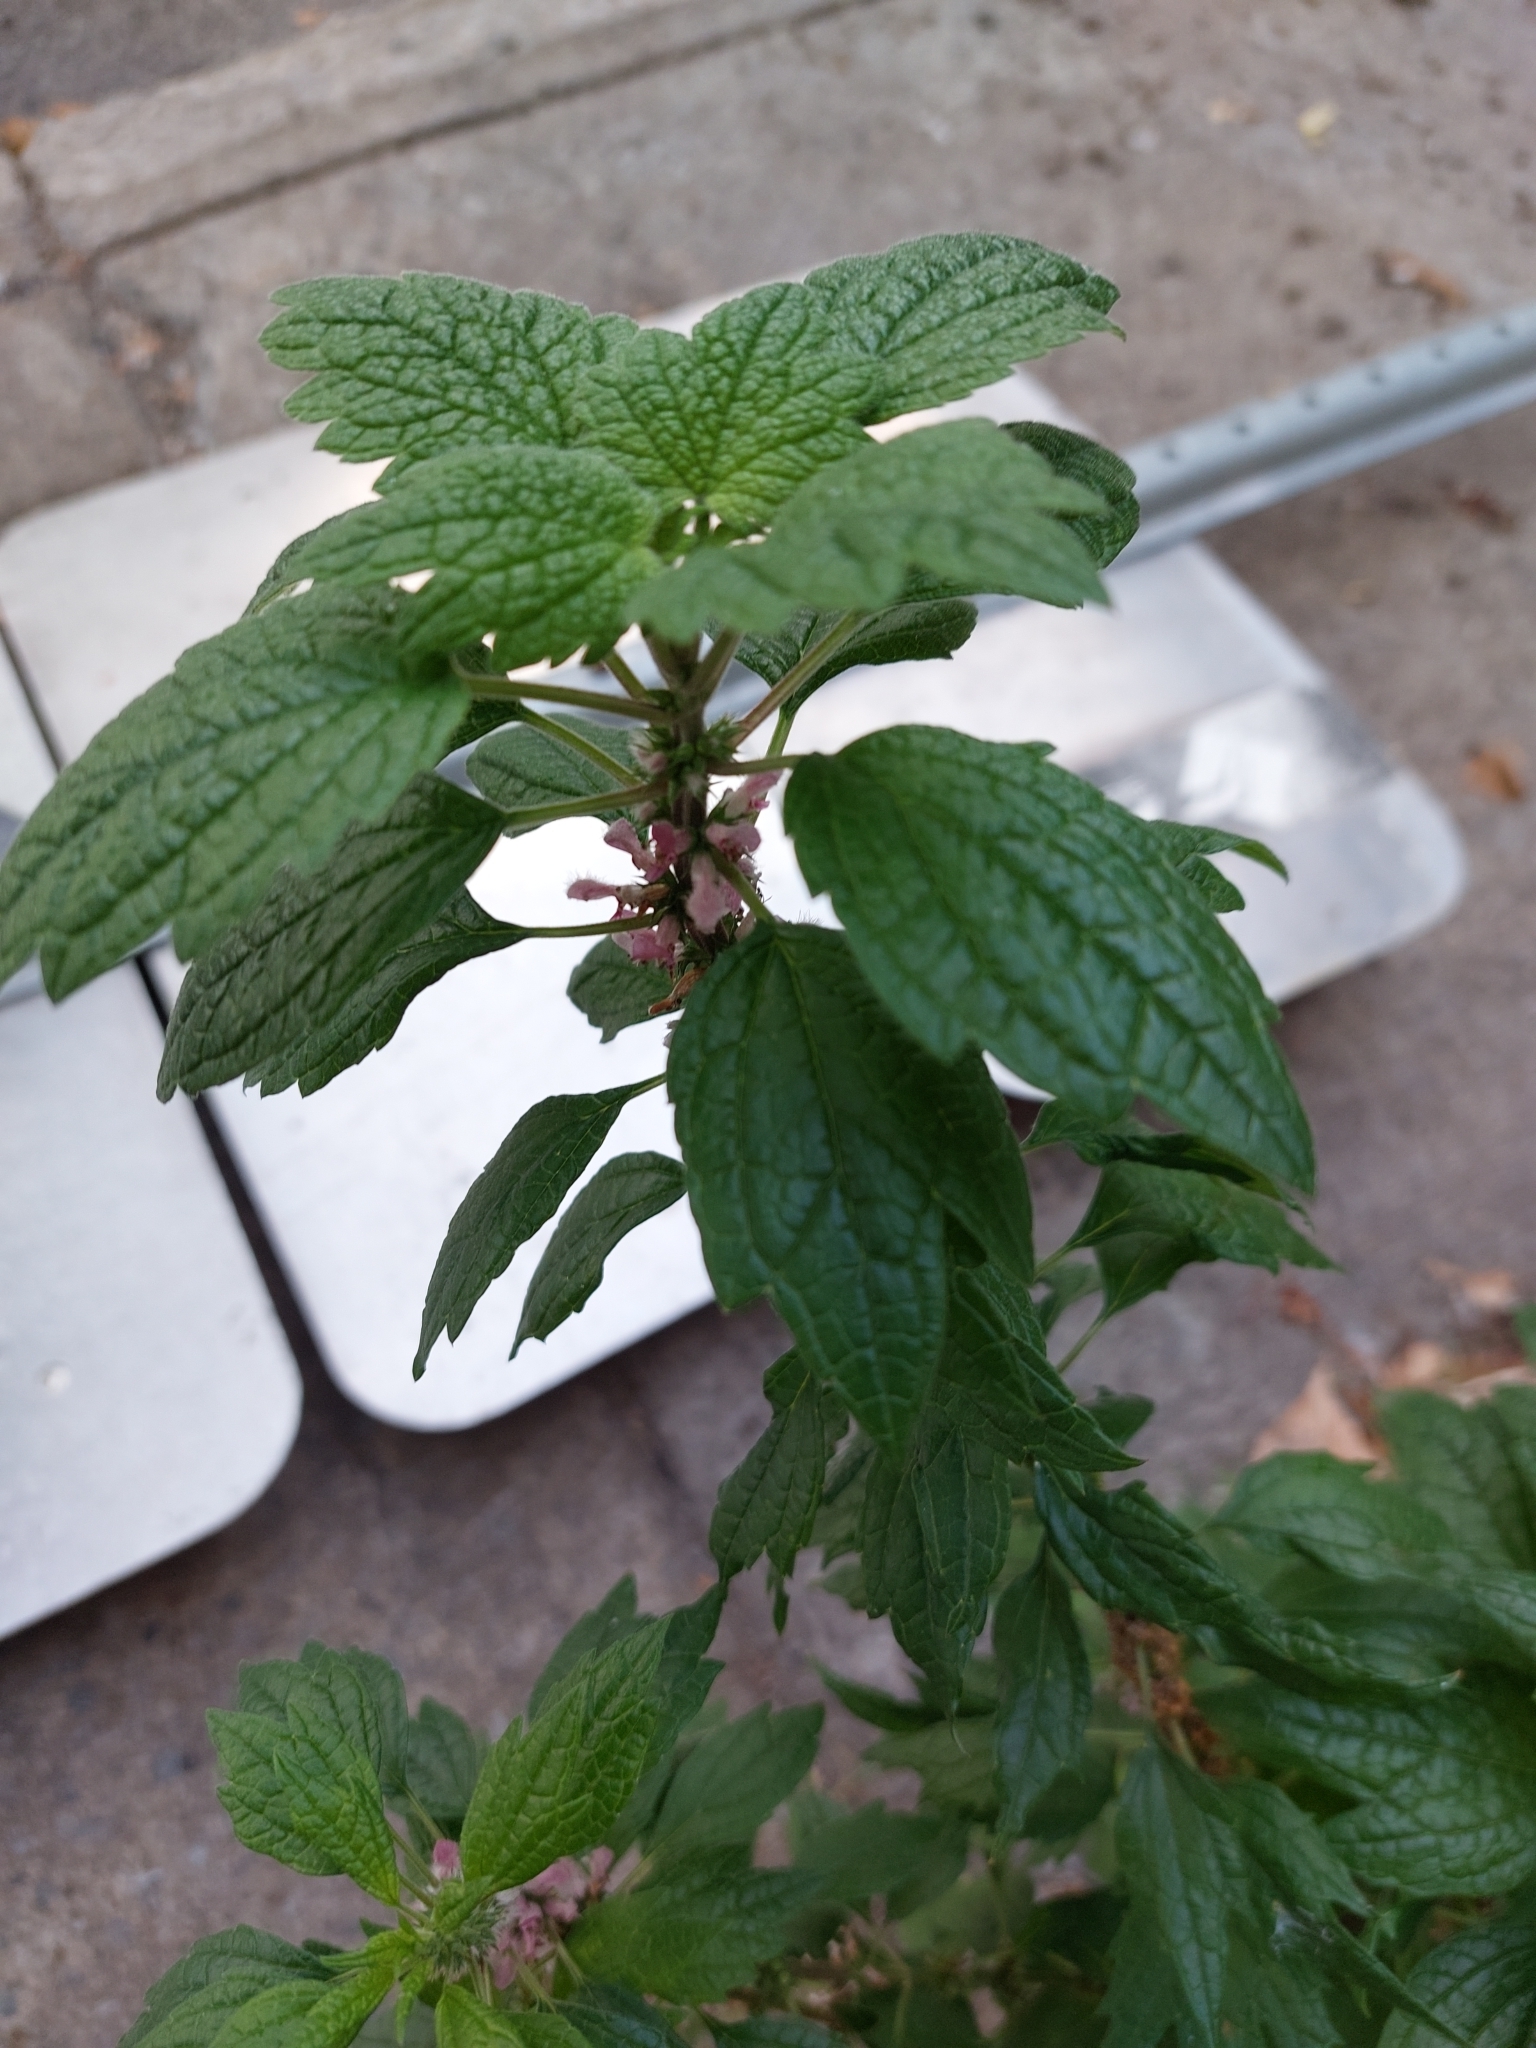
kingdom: Plantae
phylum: Tracheophyta
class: Magnoliopsida
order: Lamiales
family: Lamiaceae
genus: Leonurus
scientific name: Leonurus cardiaca
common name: Motherwort
